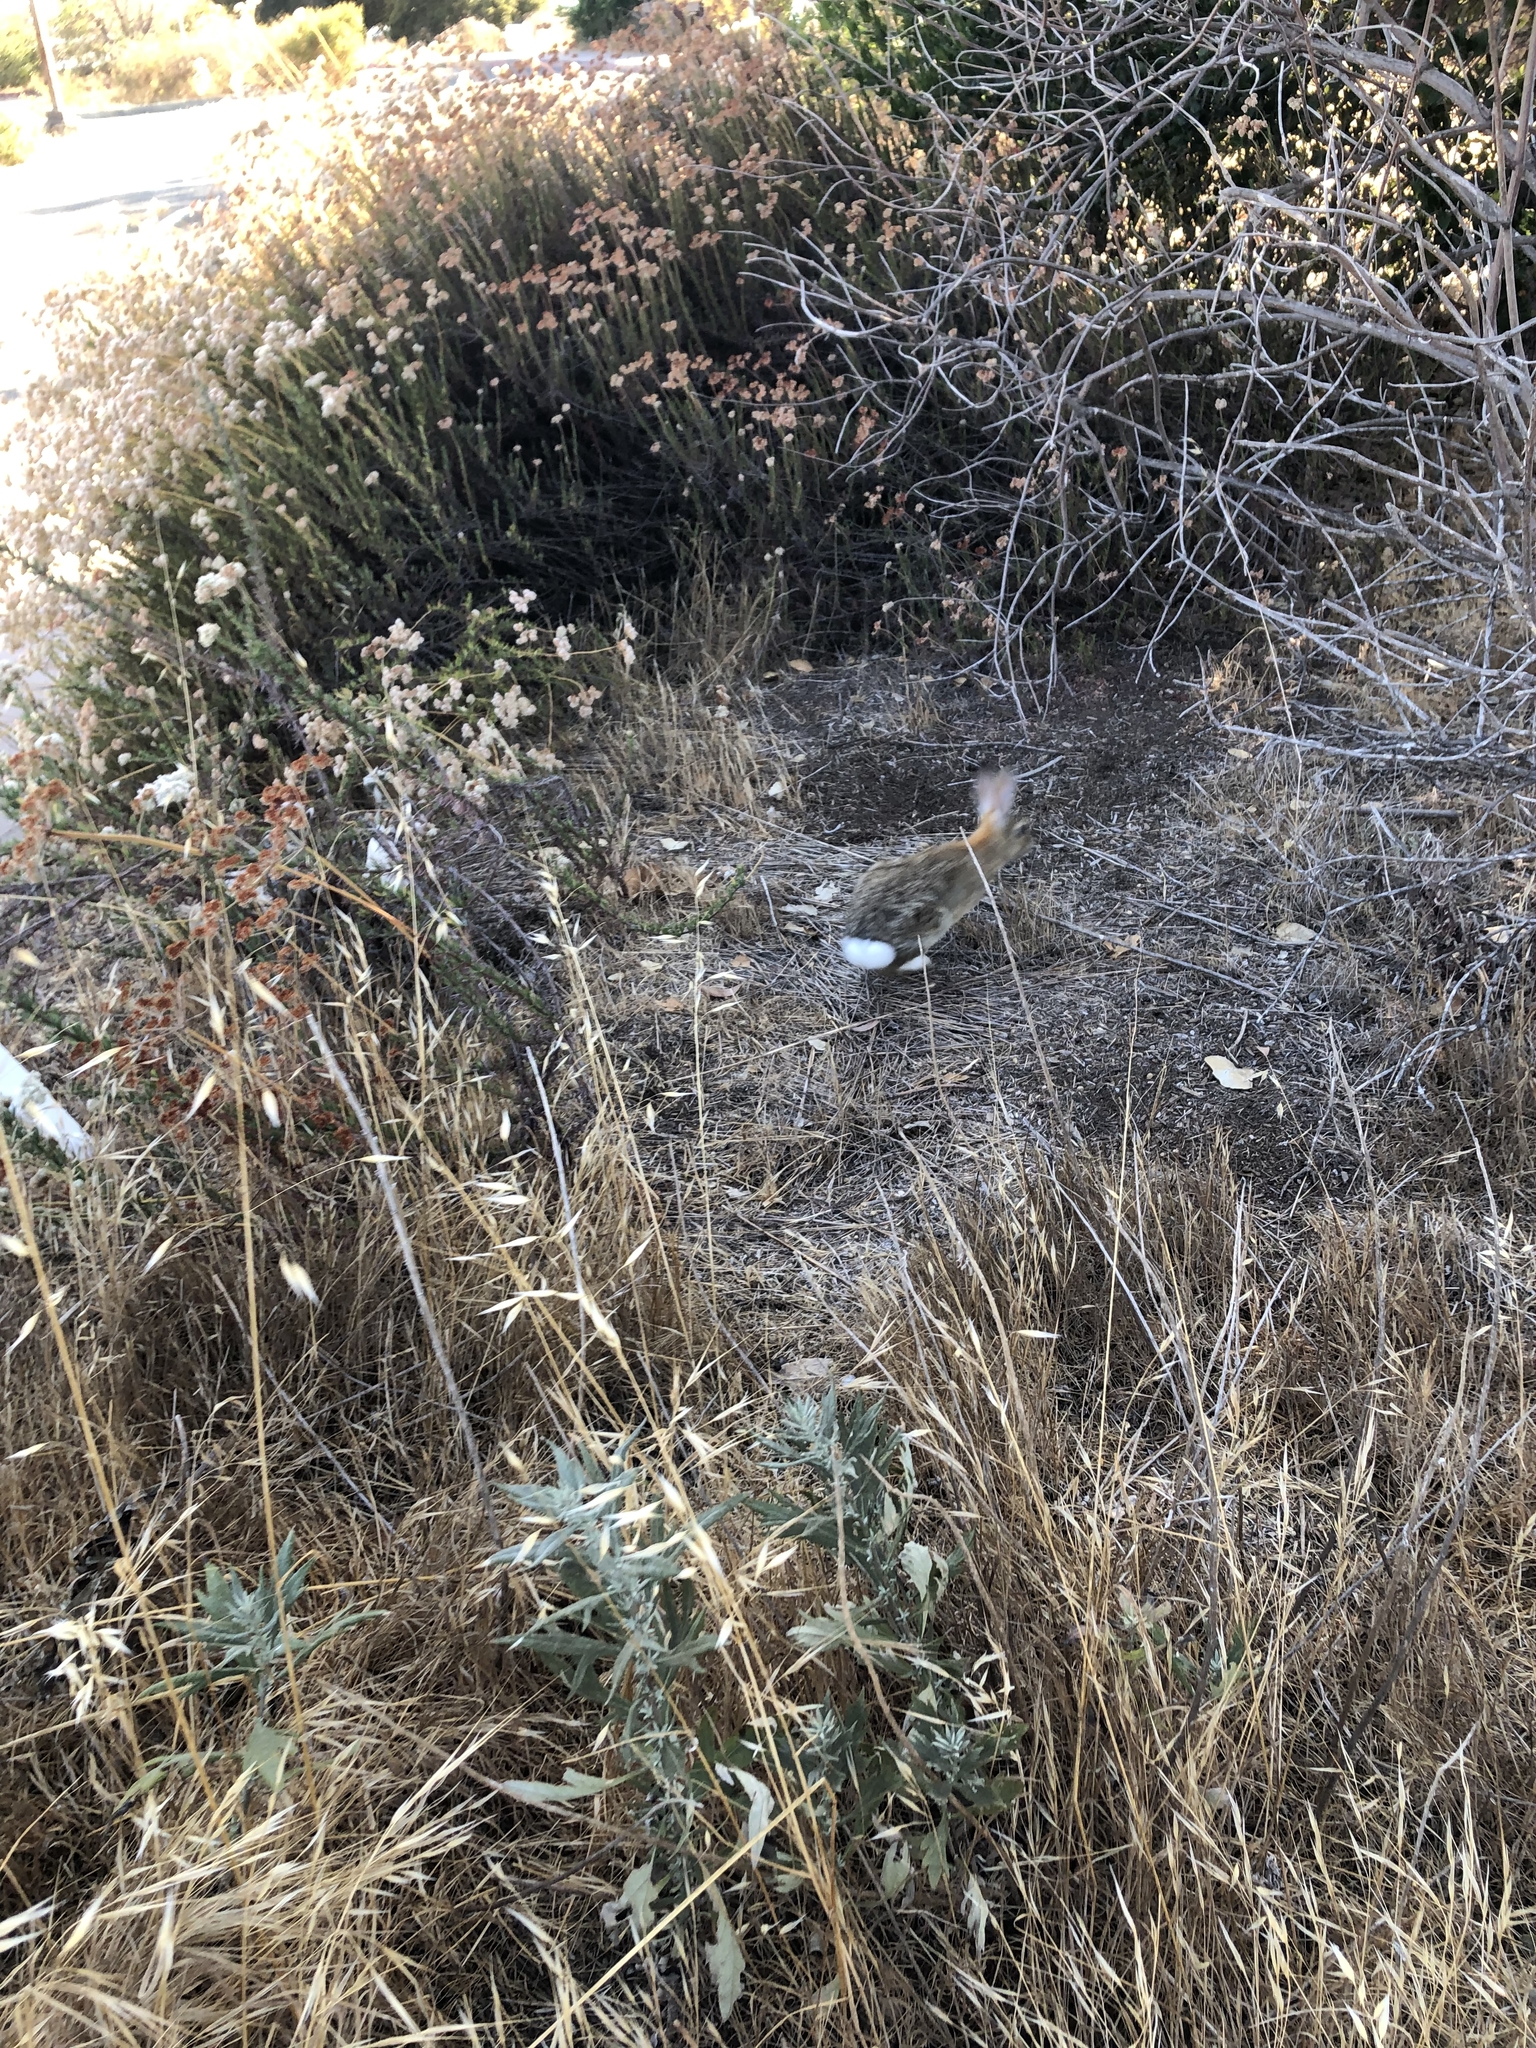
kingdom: Animalia
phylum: Chordata
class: Mammalia
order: Lagomorpha
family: Leporidae
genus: Sylvilagus
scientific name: Sylvilagus audubonii
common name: Desert cottontail
